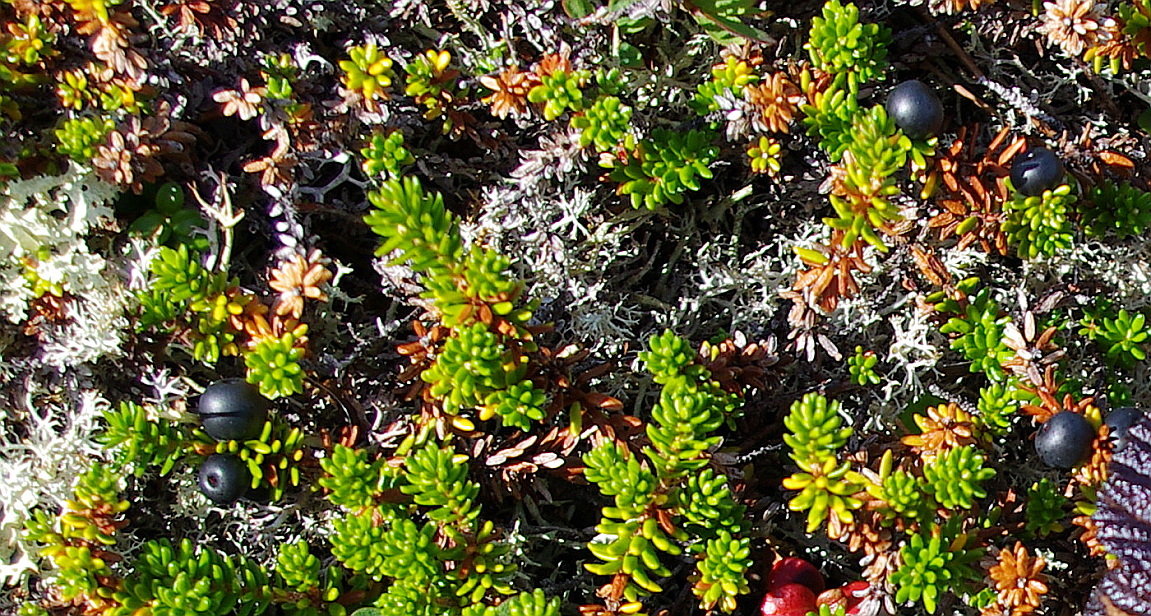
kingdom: Plantae
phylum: Tracheophyta
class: Magnoliopsida
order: Ericales
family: Ericaceae
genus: Empetrum
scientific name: Empetrum nigrum
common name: Black crowberry
